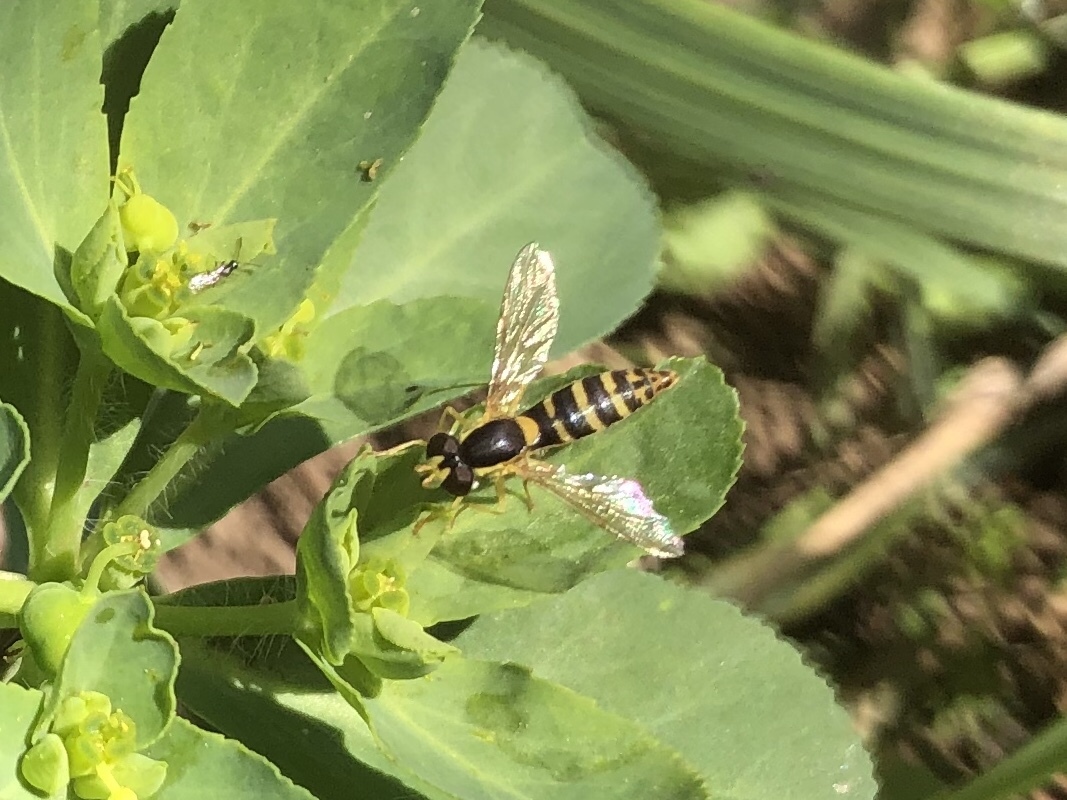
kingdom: Animalia
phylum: Arthropoda
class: Insecta
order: Diptera
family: Syrphidae
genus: Sphaerophoria
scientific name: Sphaerophoria
